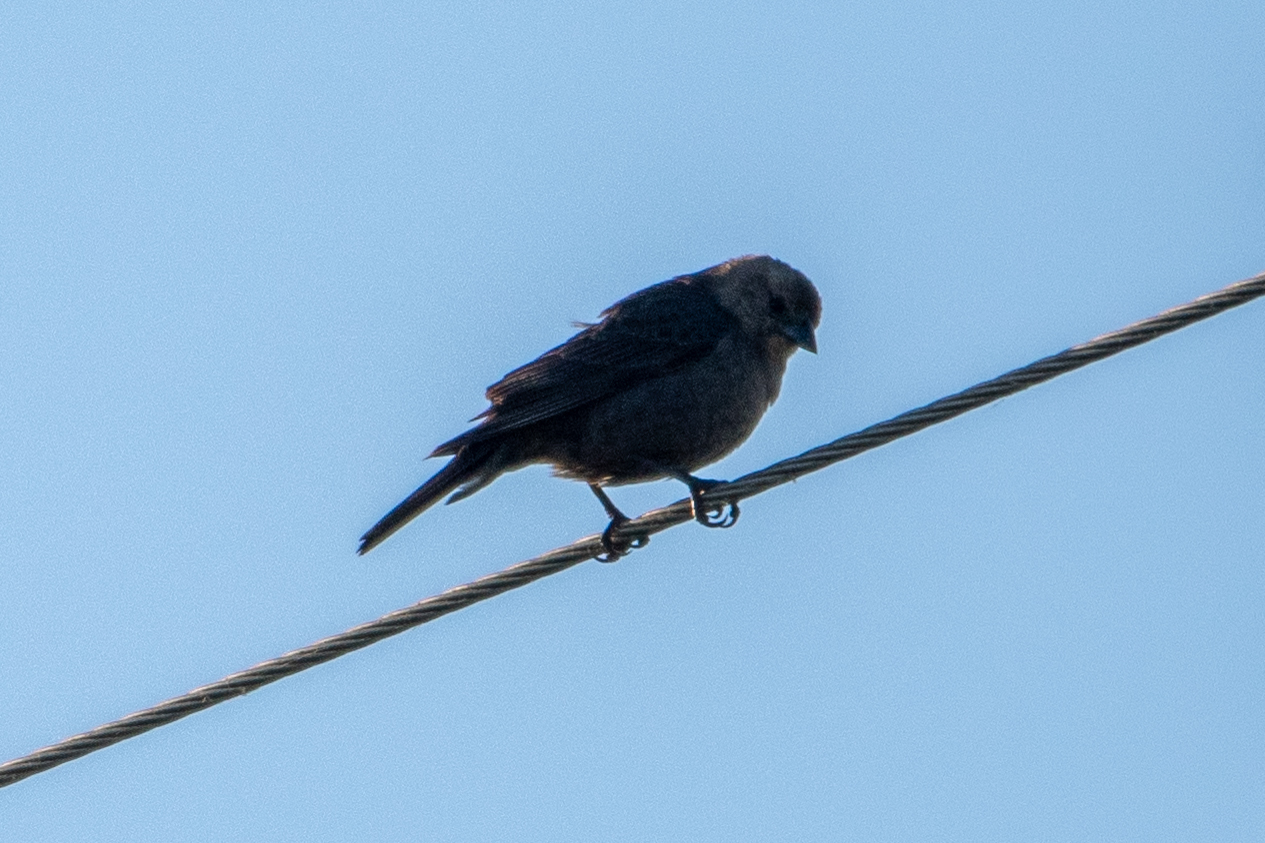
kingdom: Animalia
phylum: Chordata
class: Aves
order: Passeriformes
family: Icteridae
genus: Molothrus
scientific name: Molothrus ater
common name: Brown-headed cowbird
